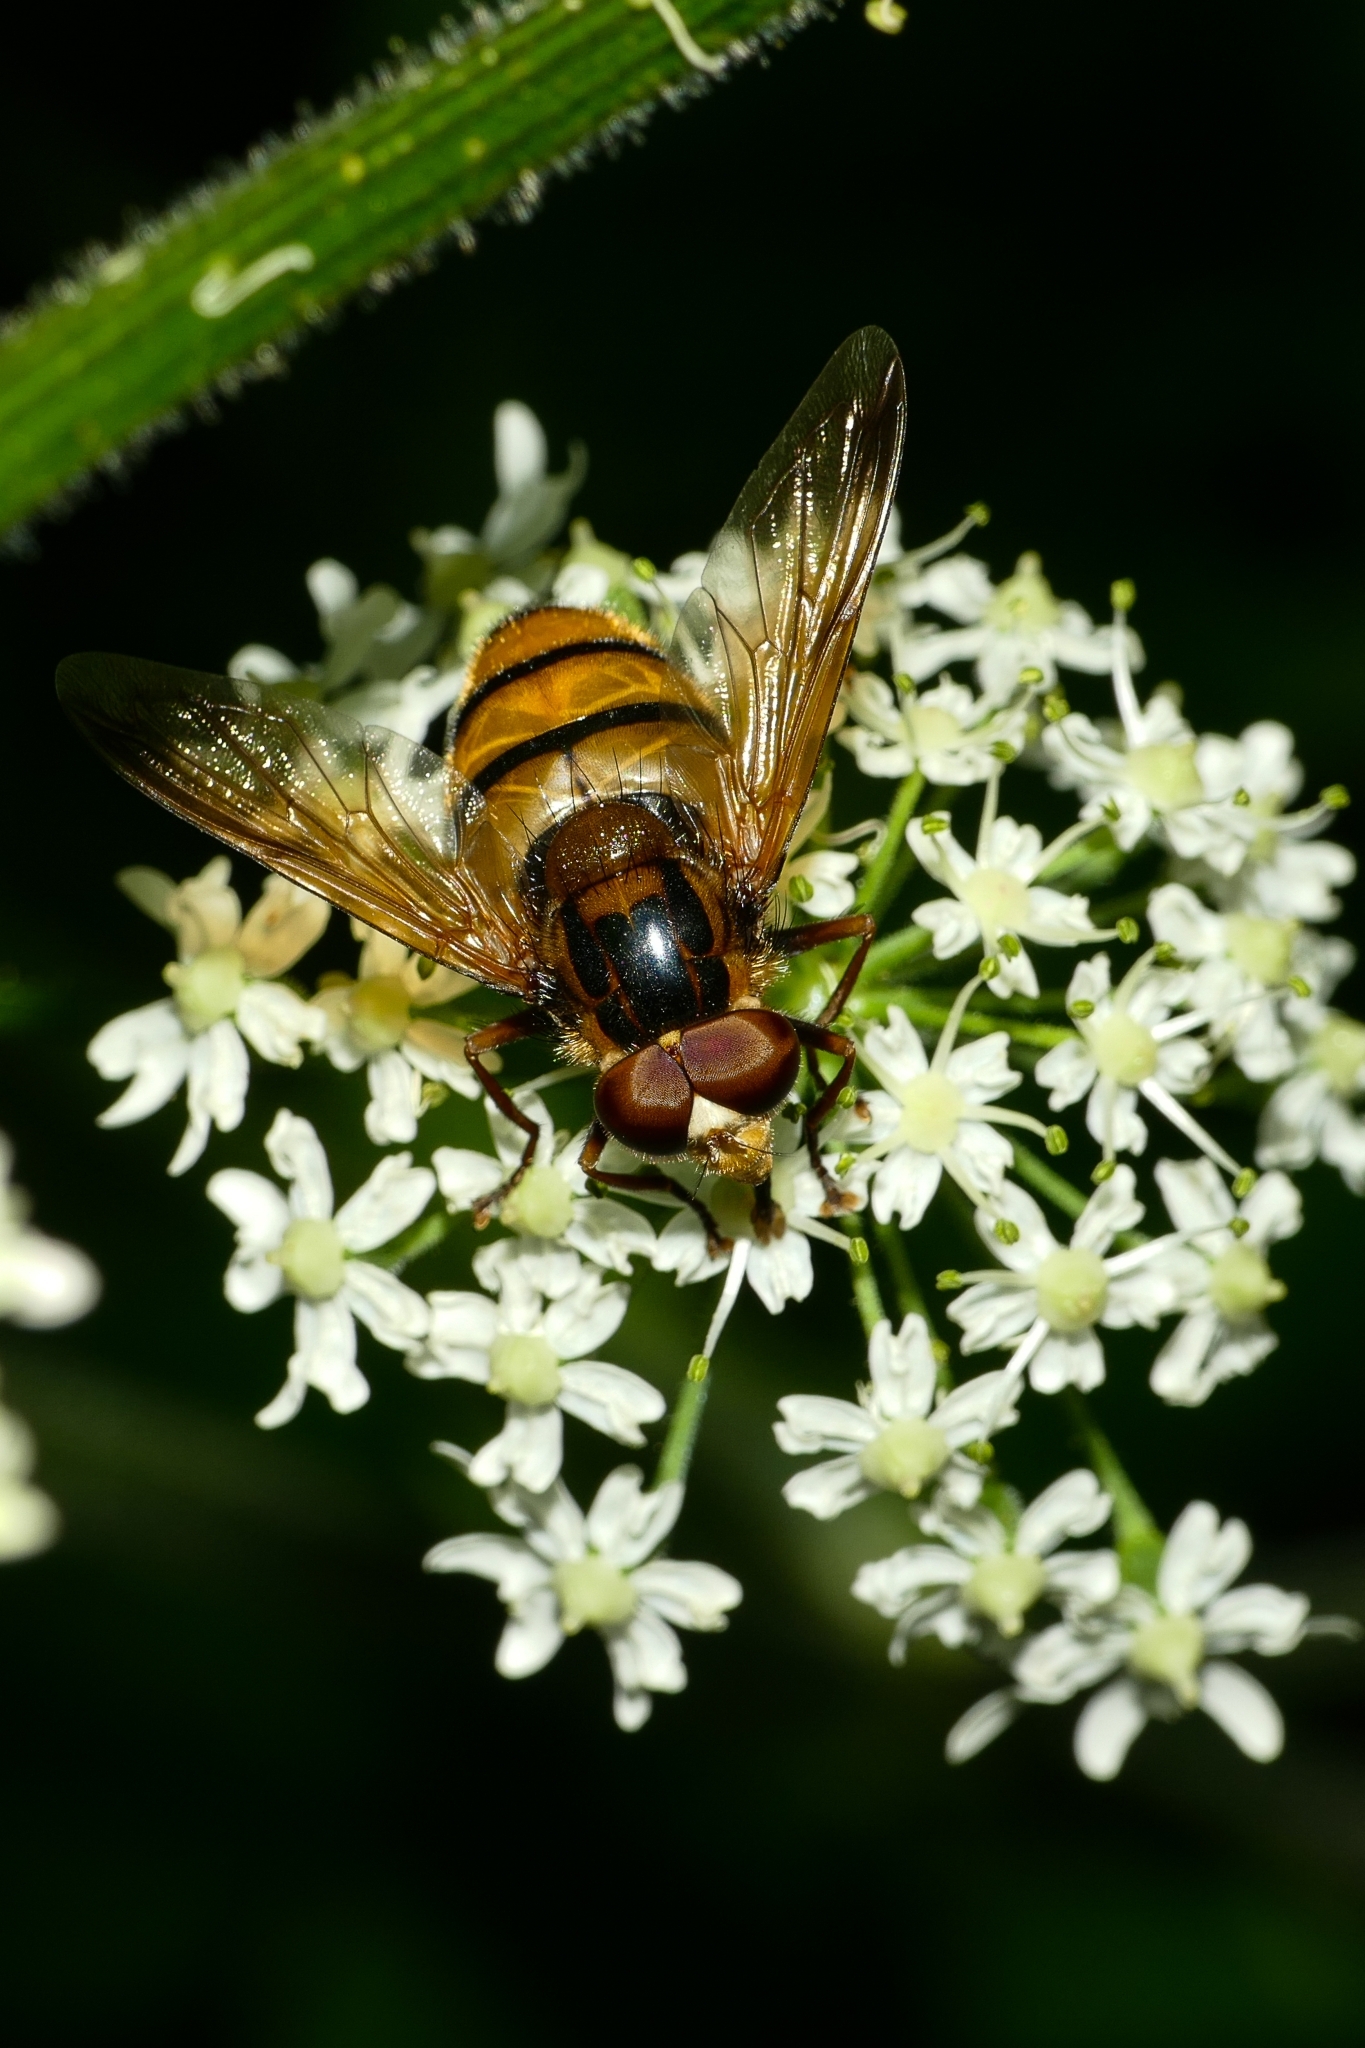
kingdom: Animalia
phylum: Arthropoda
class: Insecta
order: Diptera
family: Syrphidae
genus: Volucella
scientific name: Volucella inanis
